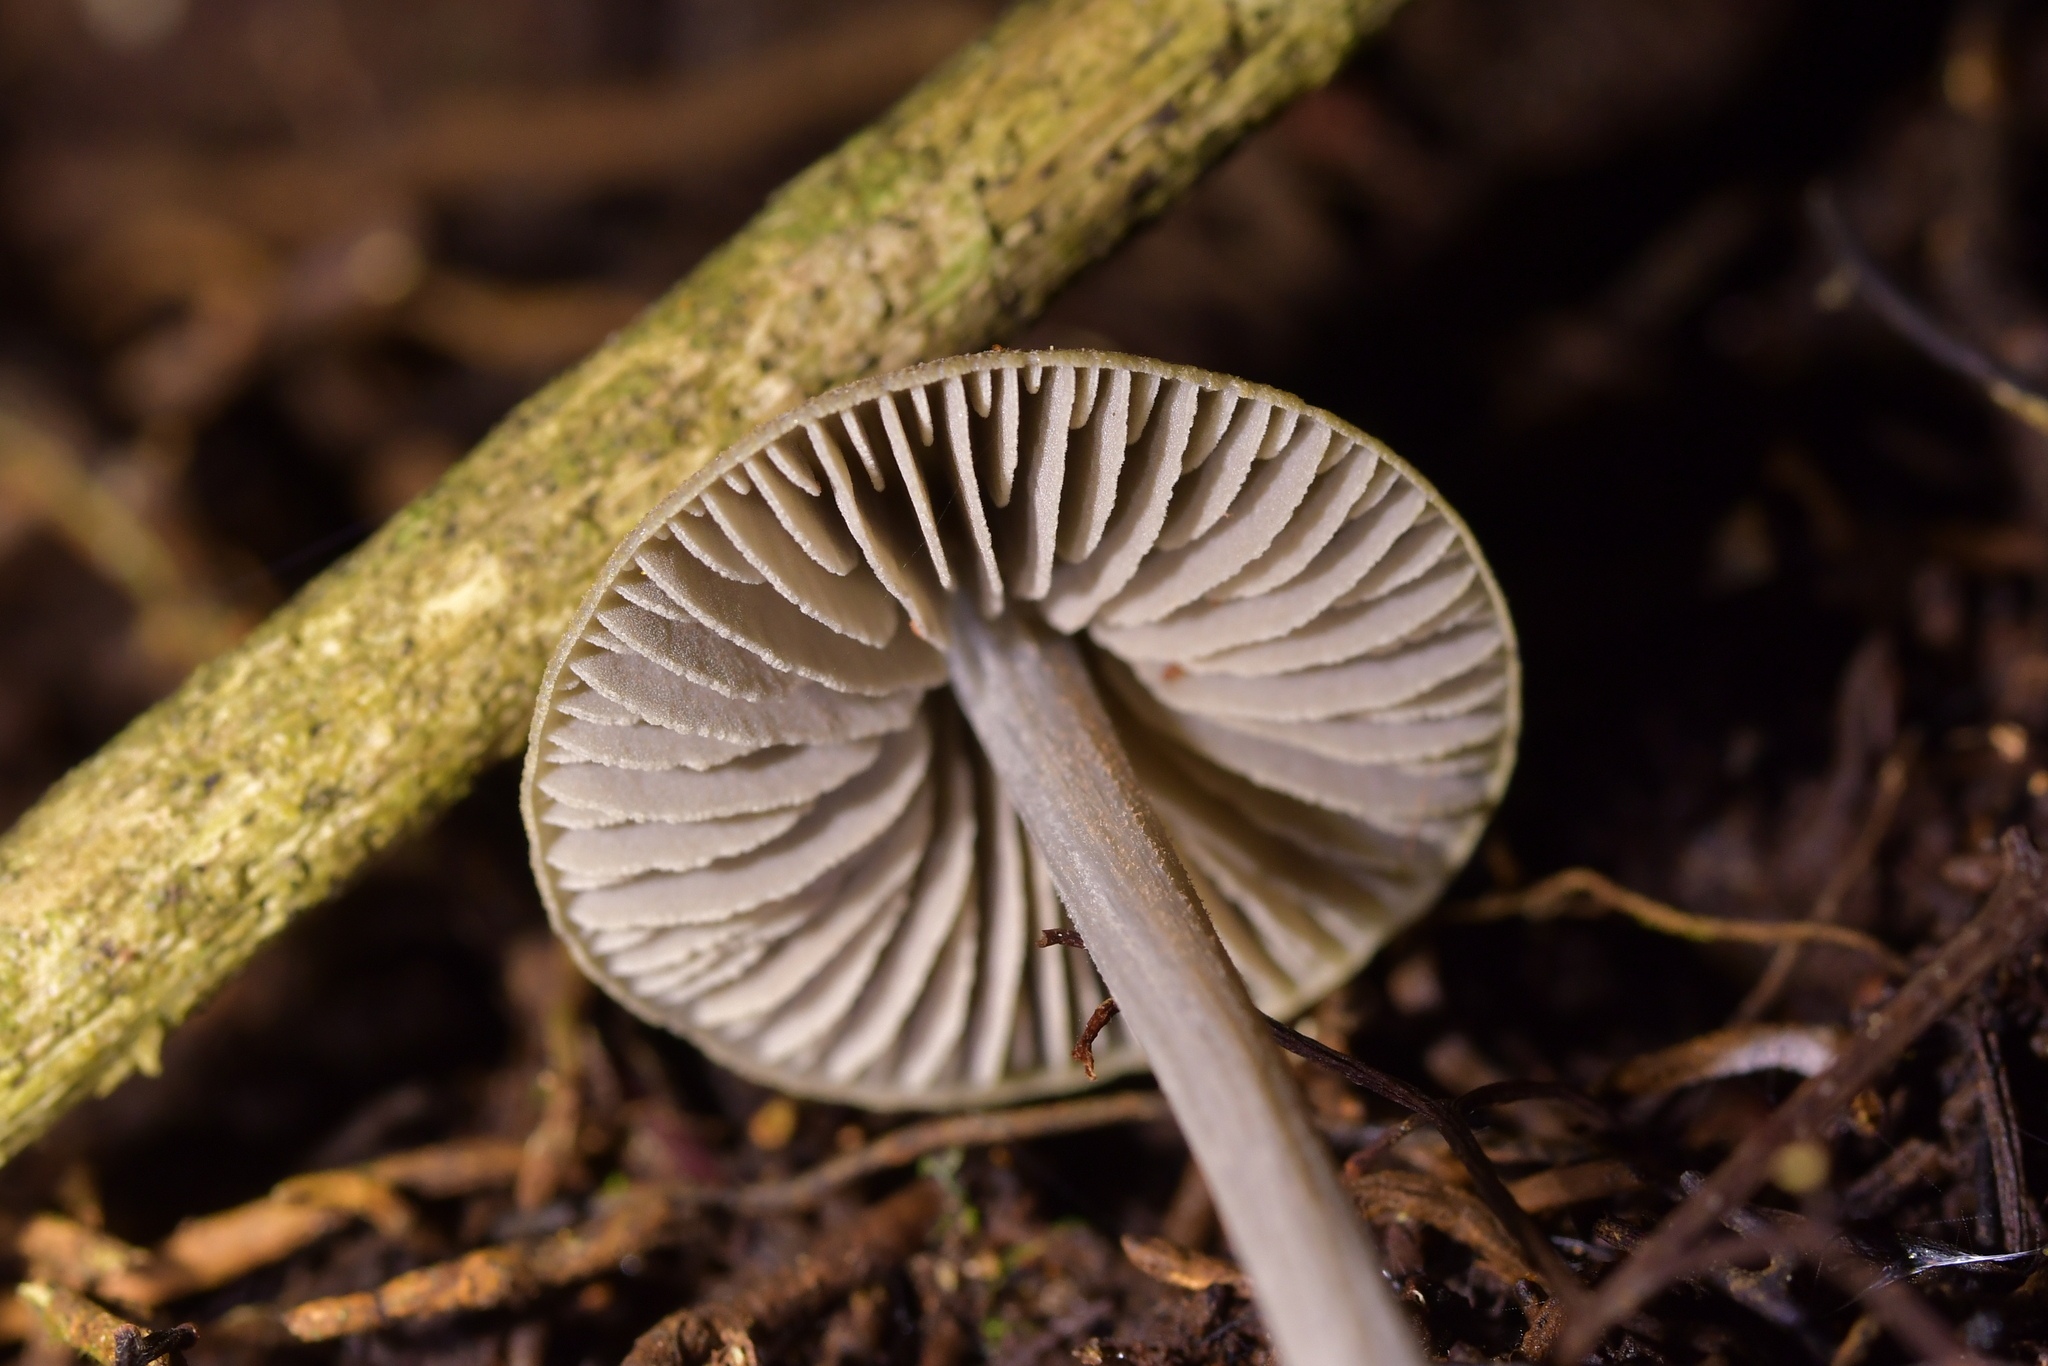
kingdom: Fungi
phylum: Basidiomycota
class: Agaricomycetes
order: Agaricales
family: Entolomataceae
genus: Entoloma
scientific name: Entoloma canoconicum
